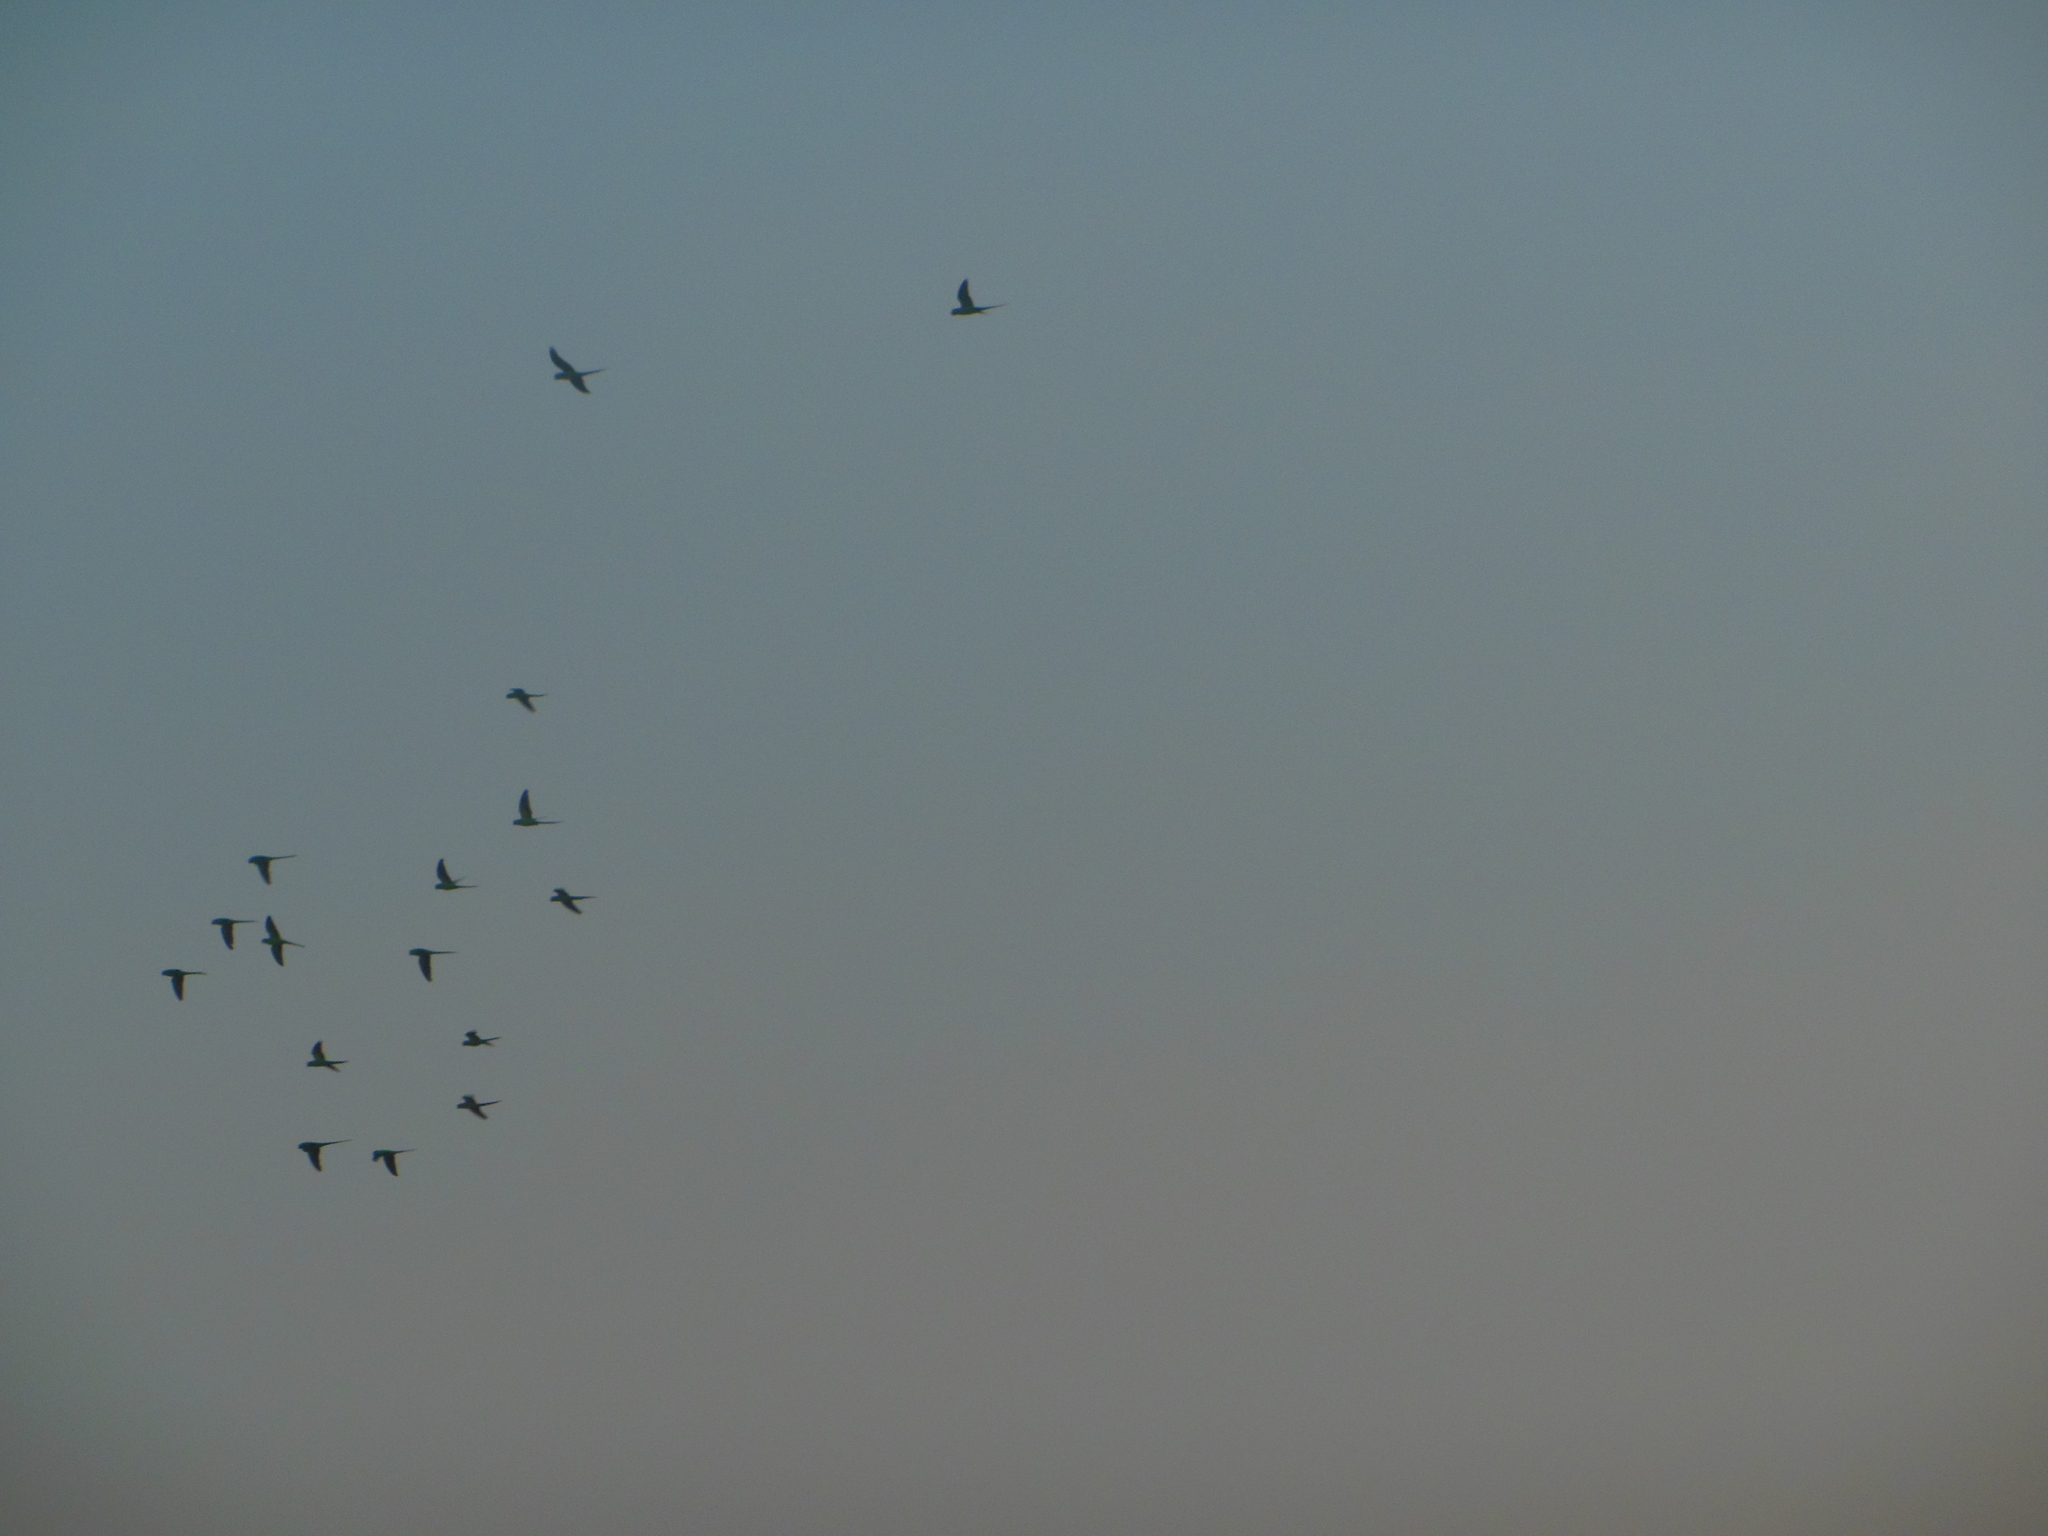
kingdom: Animalia
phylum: Chordata
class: Aves
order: Psittaciformes
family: Psittacidae
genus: Psittacula
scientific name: Psittacula krameri
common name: Rose-ringed parakeet
